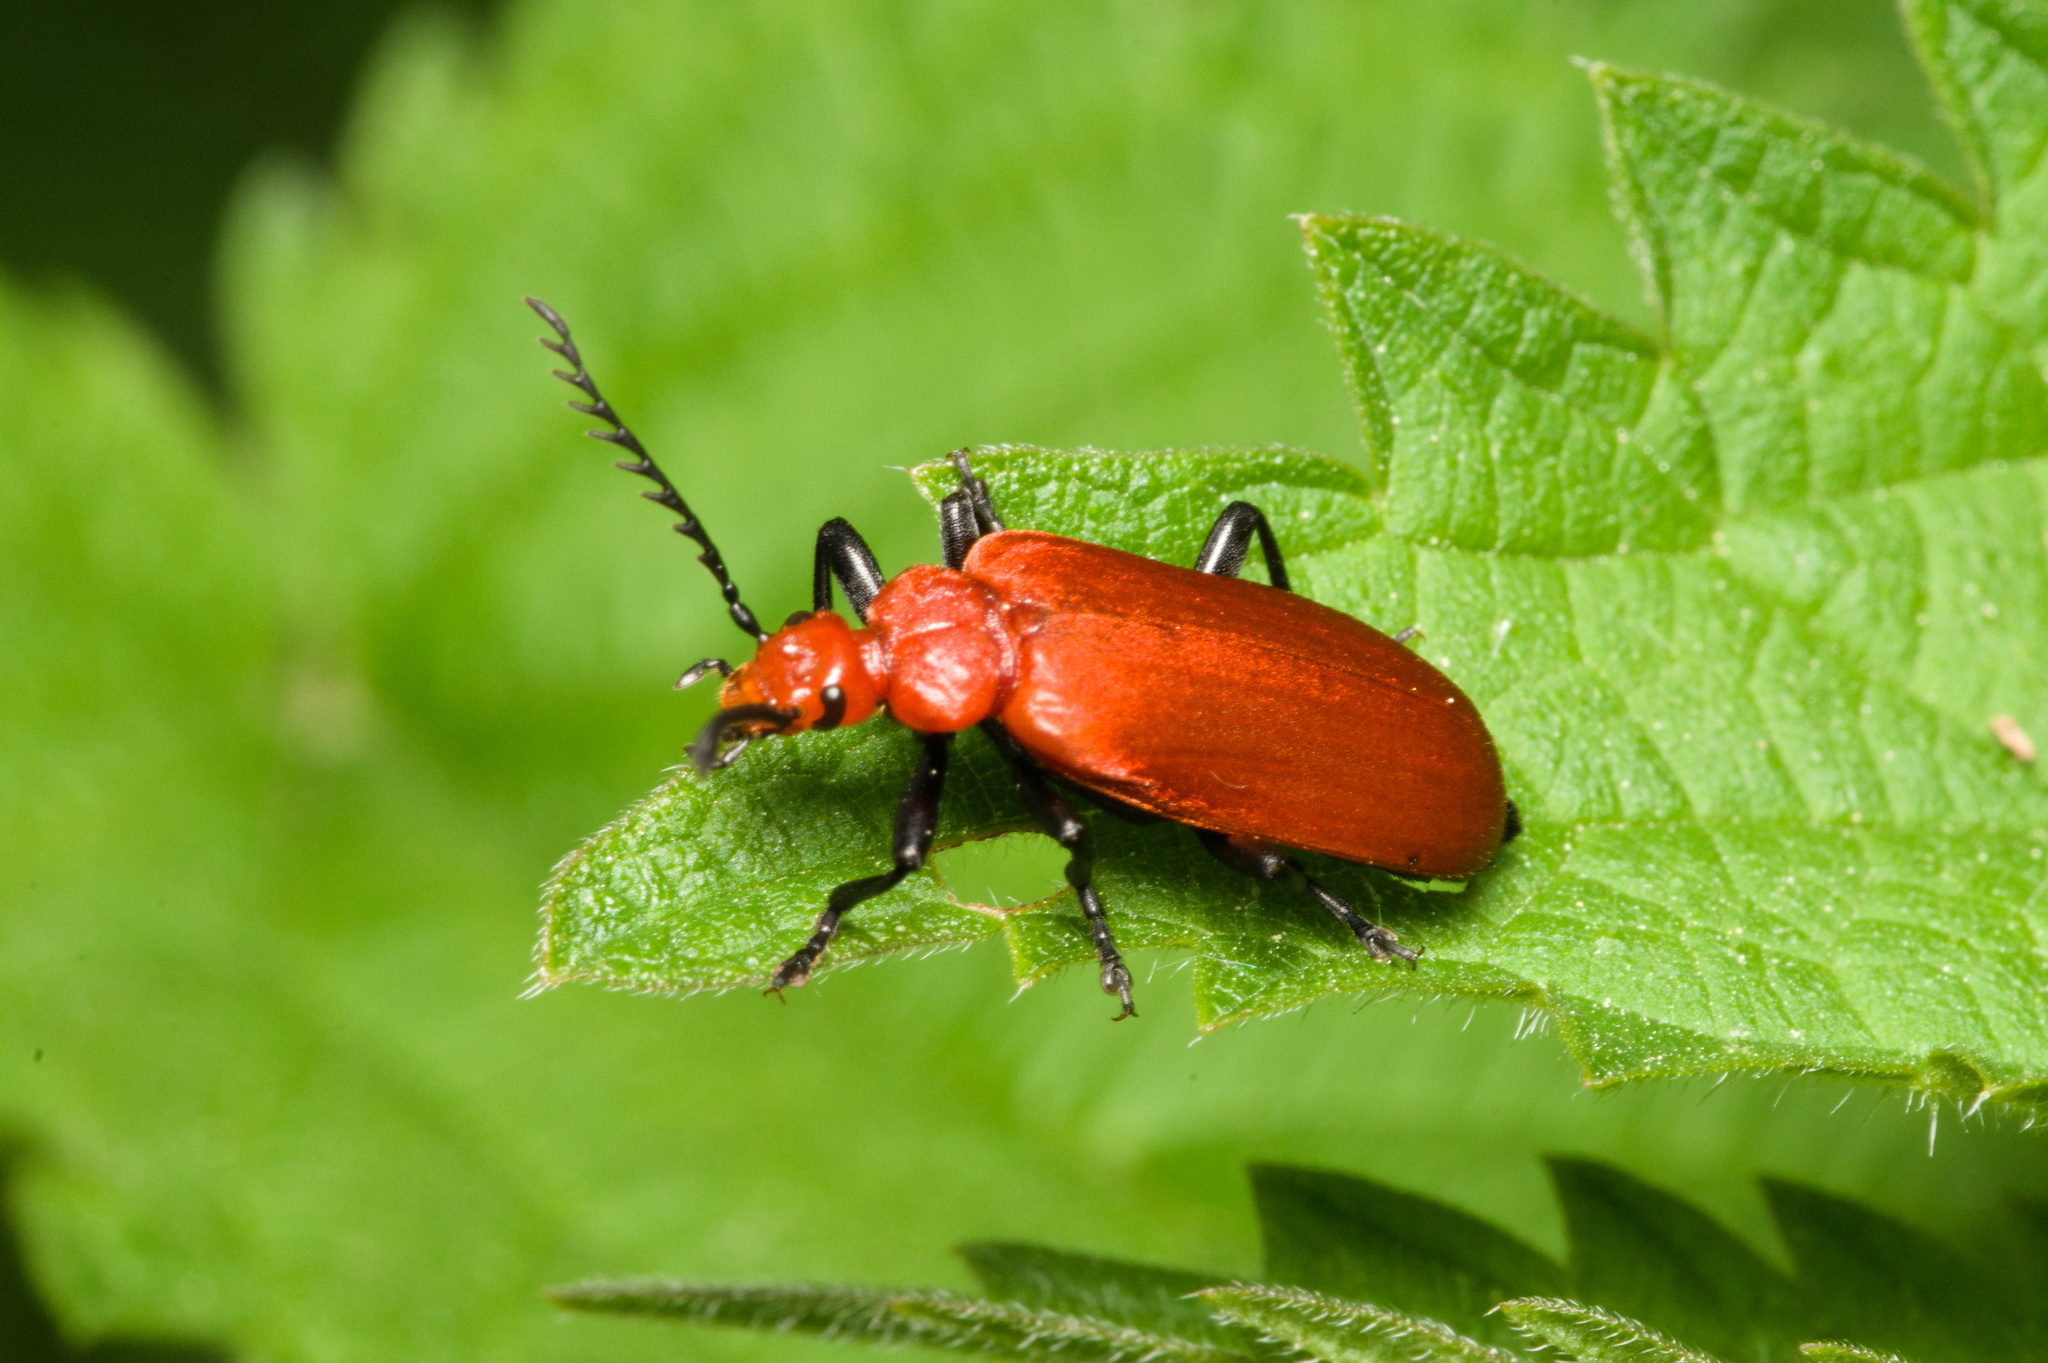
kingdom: Animalia
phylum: Arthropoda
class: Insecta
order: Coleoptera
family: Pyrochroidae
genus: Pyrochroa
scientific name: Pyrochroa serraticornis
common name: Red-headed cardinal beetle
